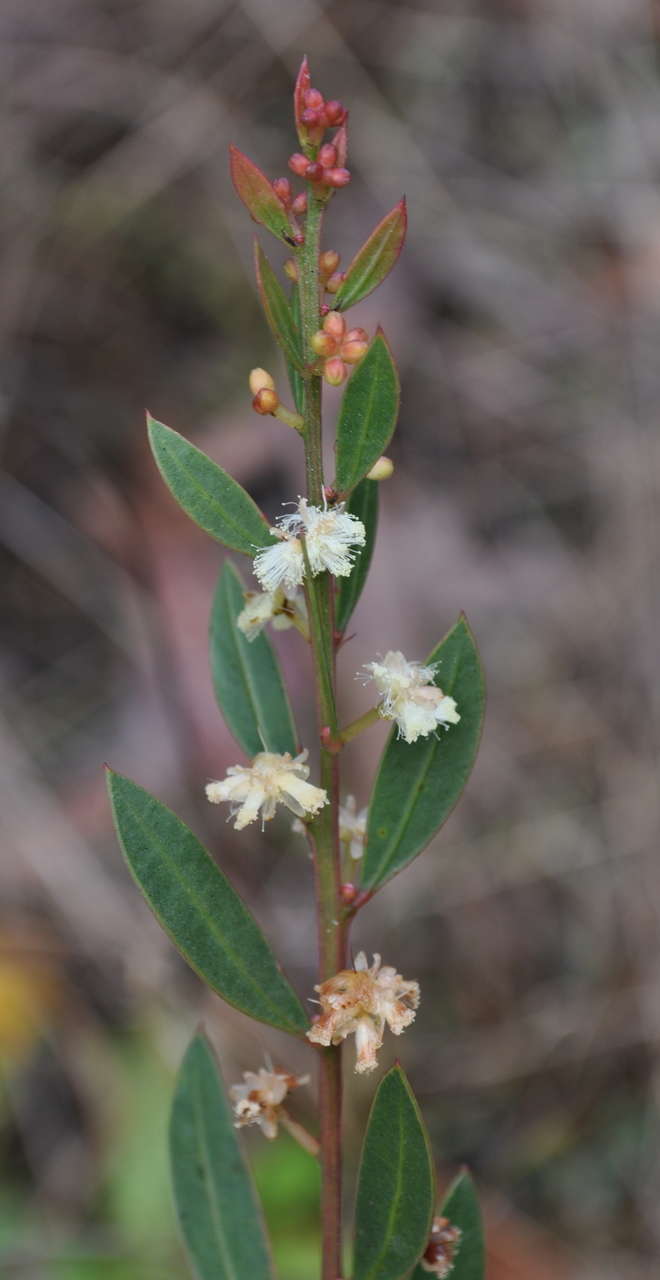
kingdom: Plantae
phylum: Tracheophyta
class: Magnoliopsida
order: Fabales
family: Fabaceae
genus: Acacia
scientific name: Acacia myrtifolia
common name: Myrtle wattle
